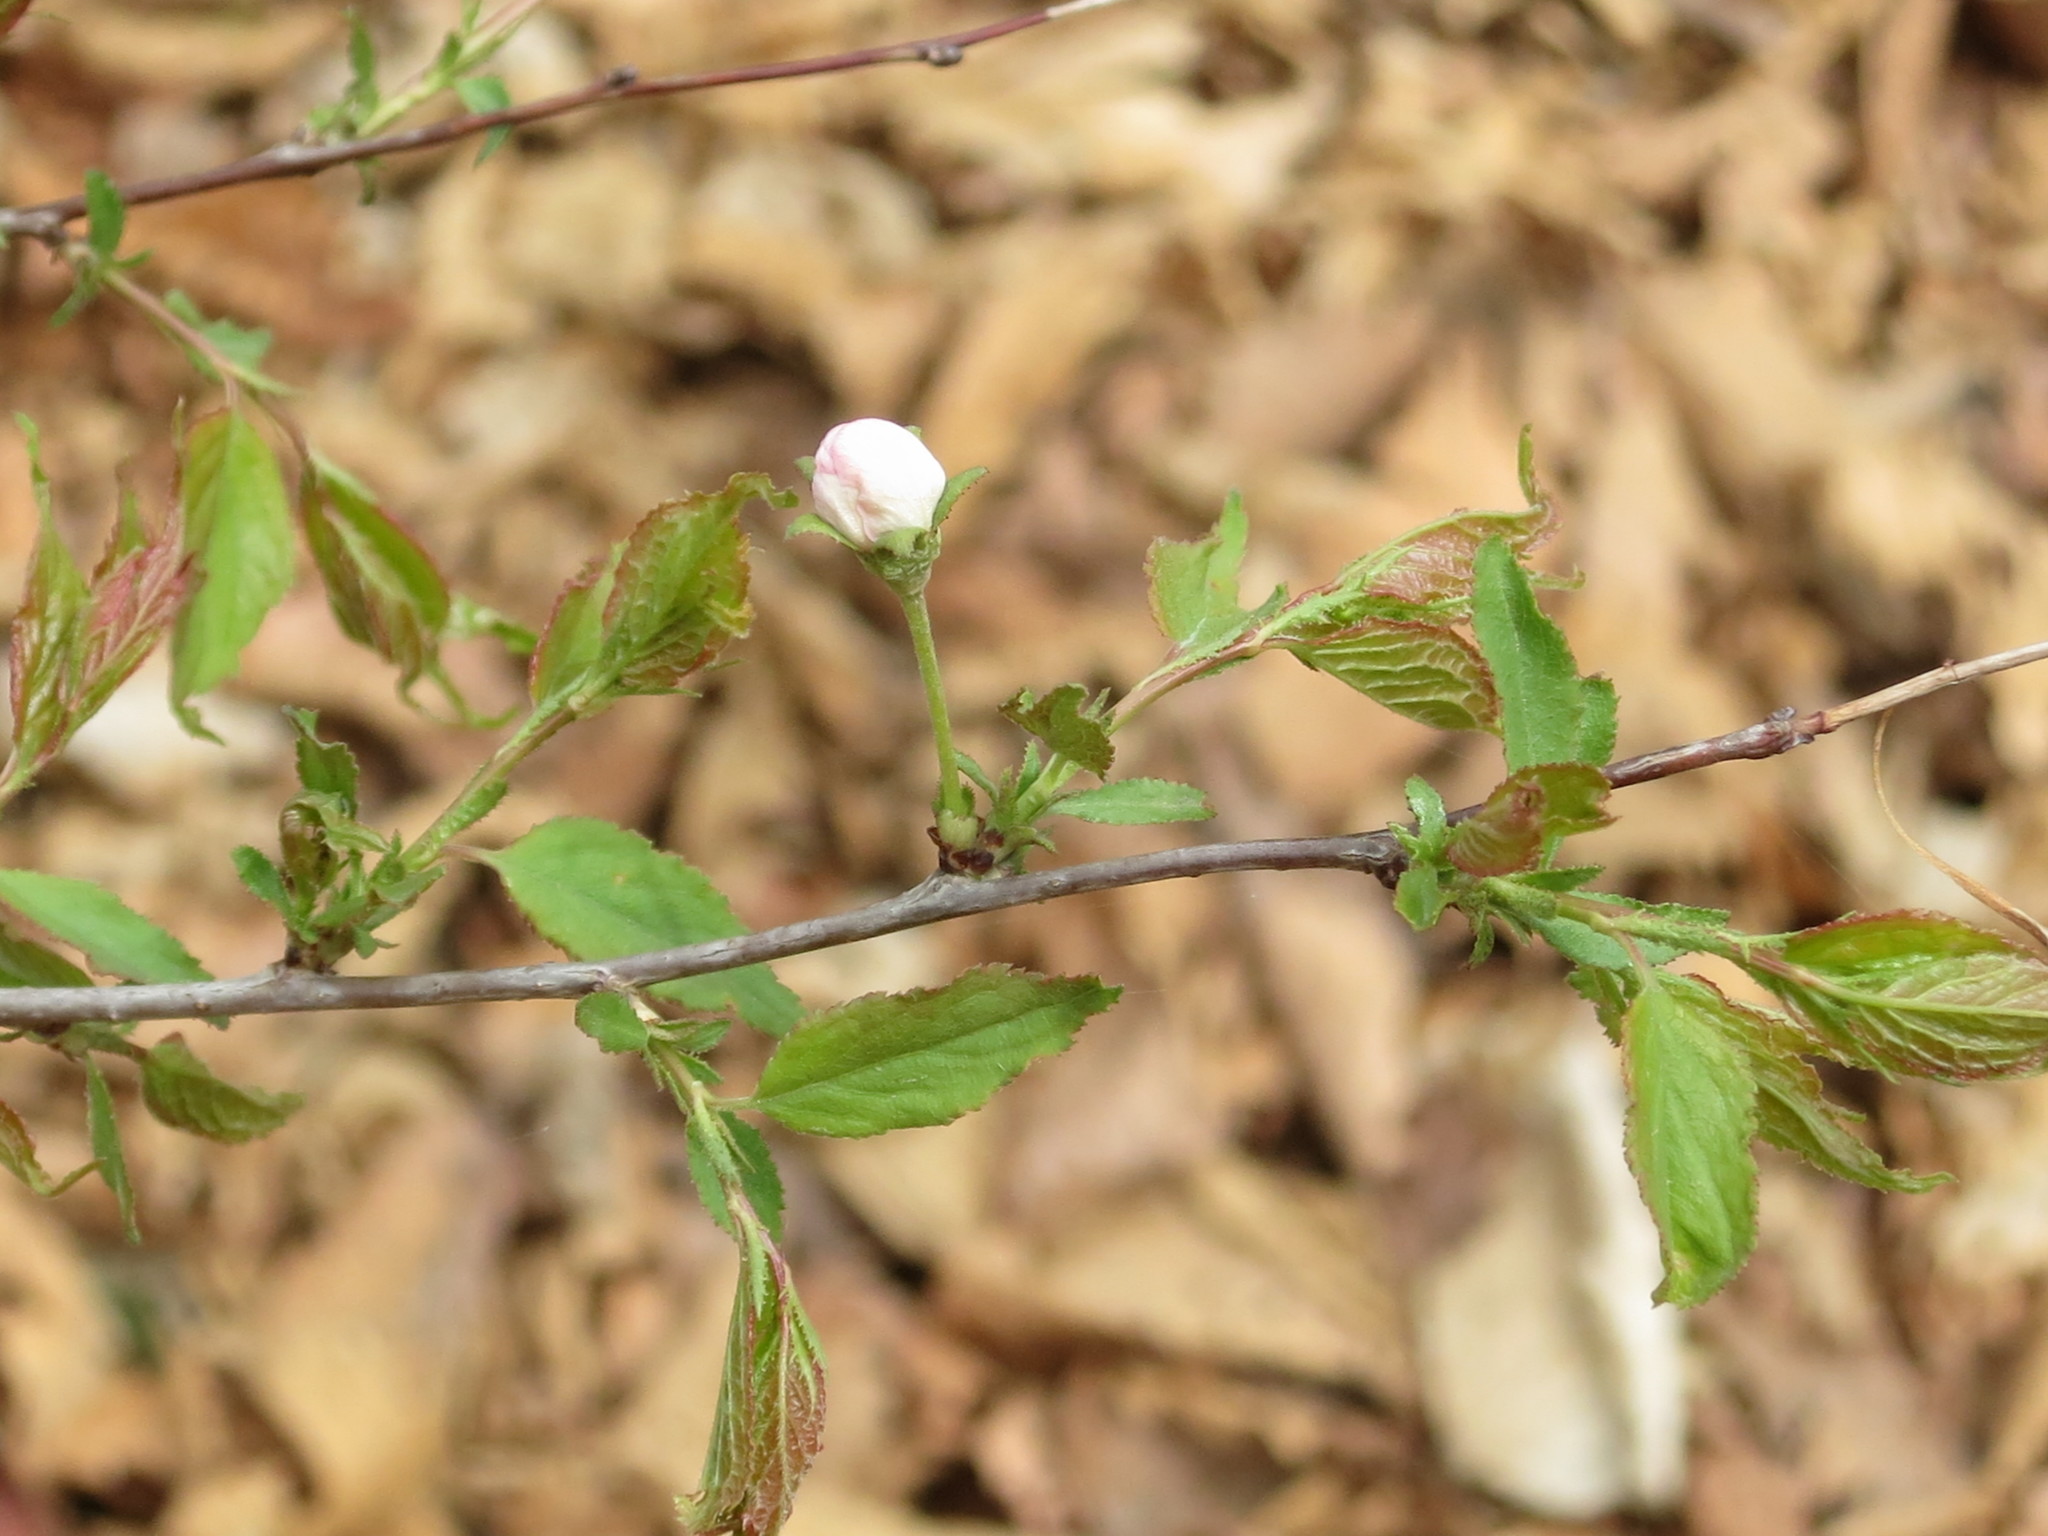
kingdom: Plantae
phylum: Tracheophyta
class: Magnoliopsida
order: Rosales
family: Rosaceae
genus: Prunus
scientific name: Prunus glandulosa
